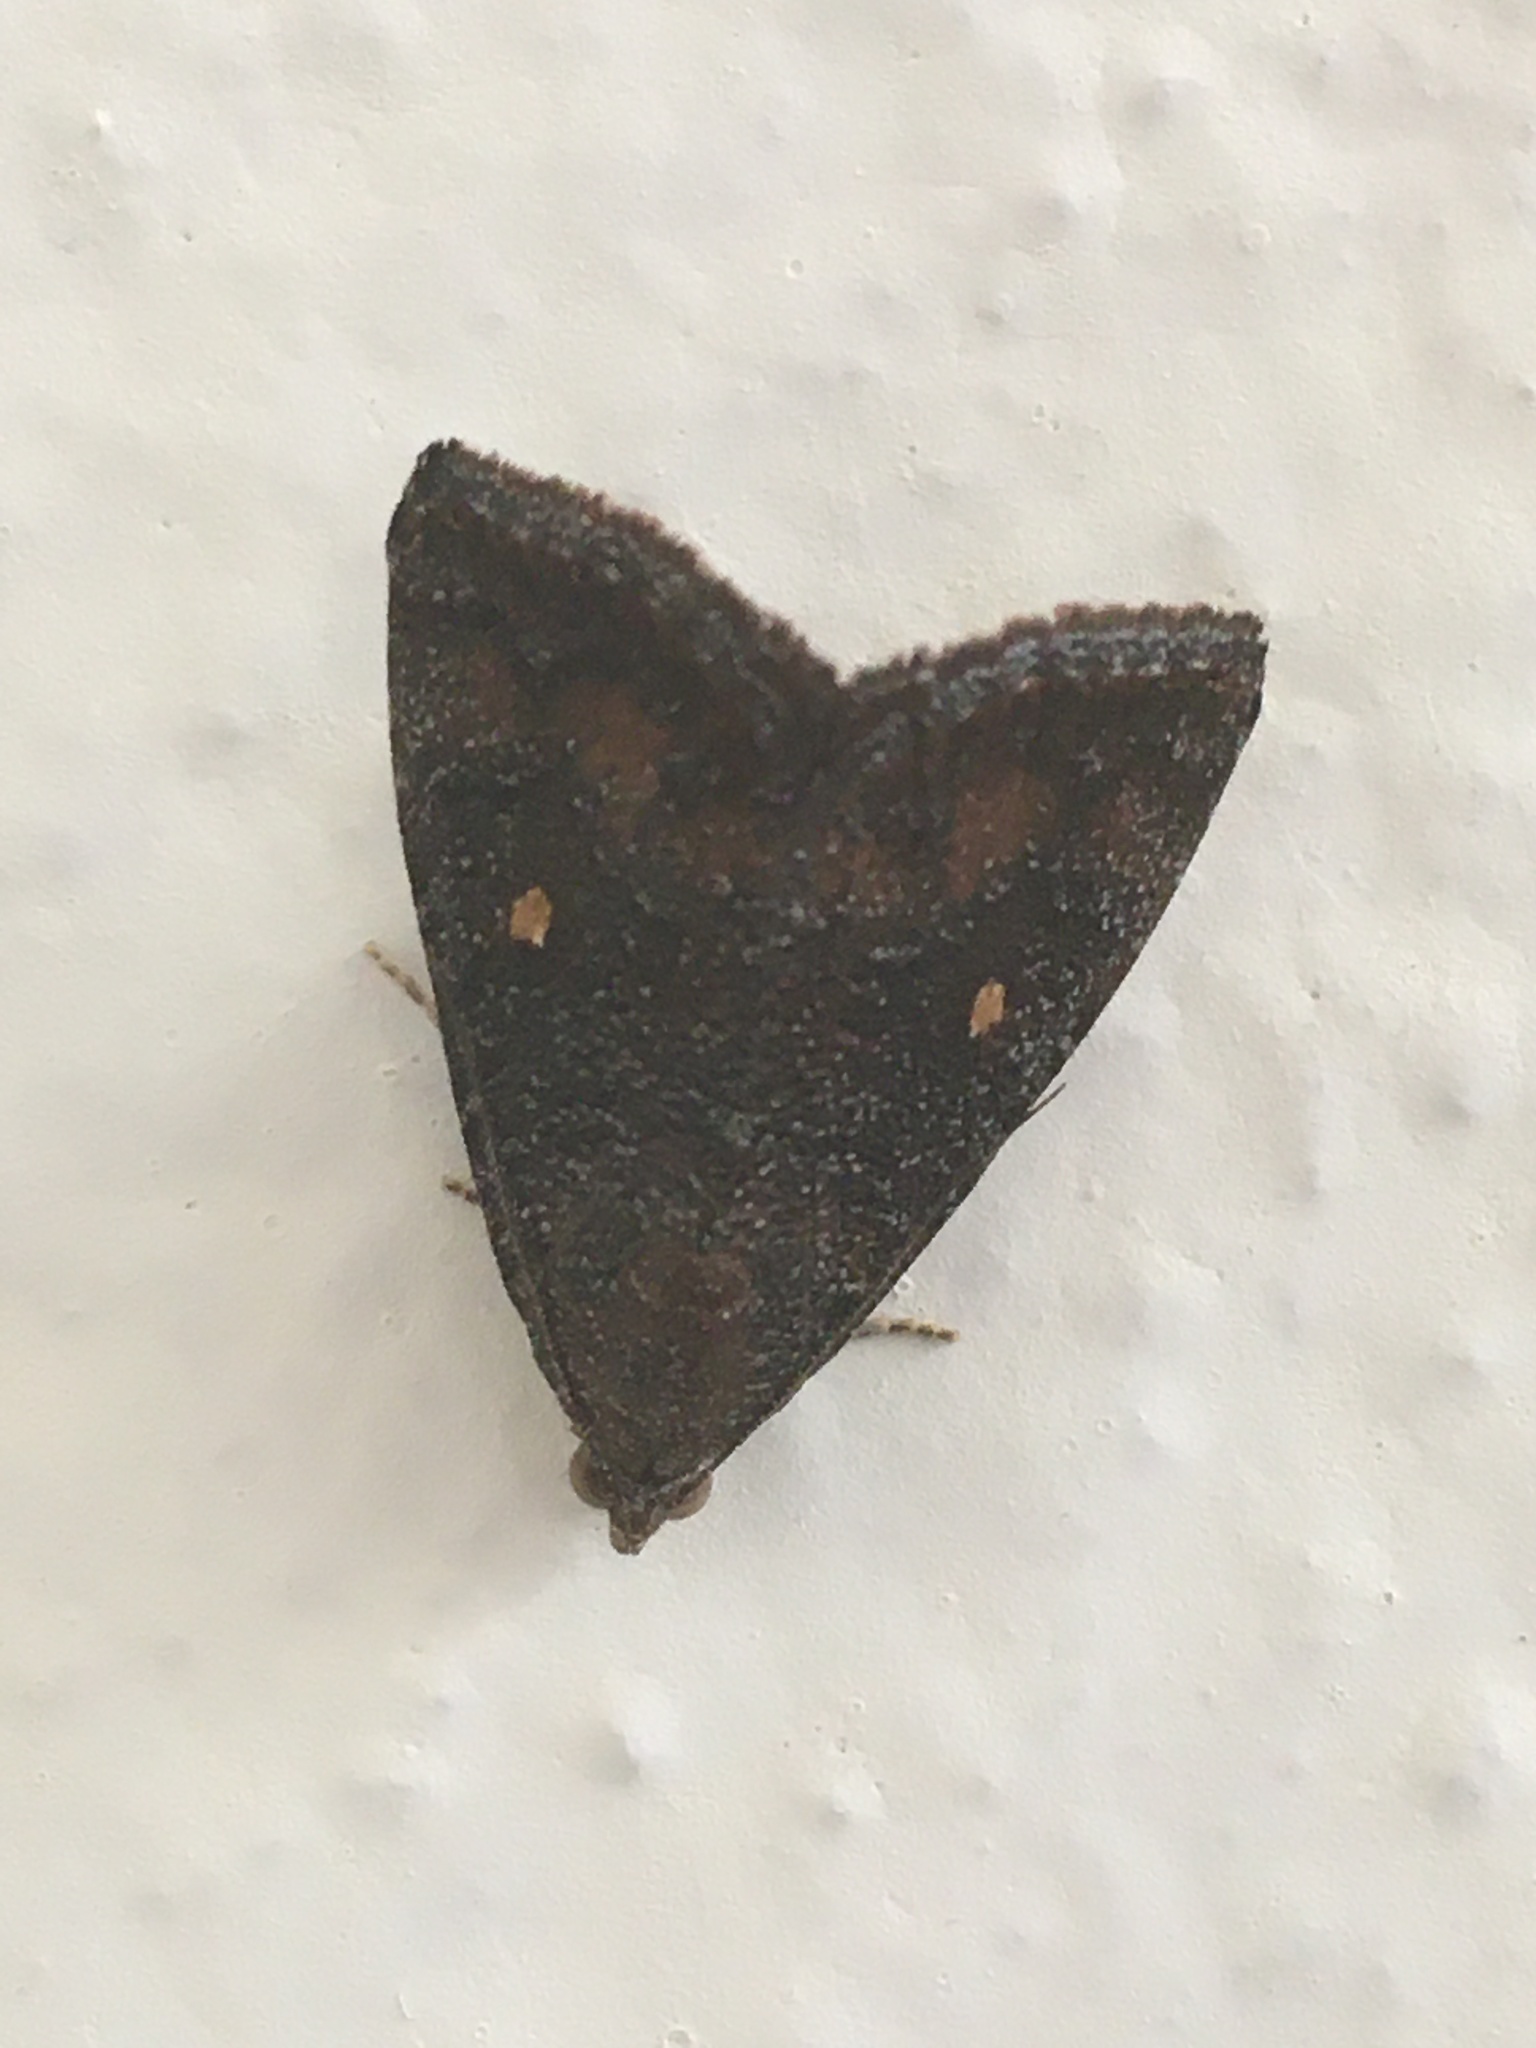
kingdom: Animalia
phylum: Arthropoda
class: Insecta
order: Lepidoptera
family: Noctuidae
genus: Amyna
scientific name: Amyna stricta
